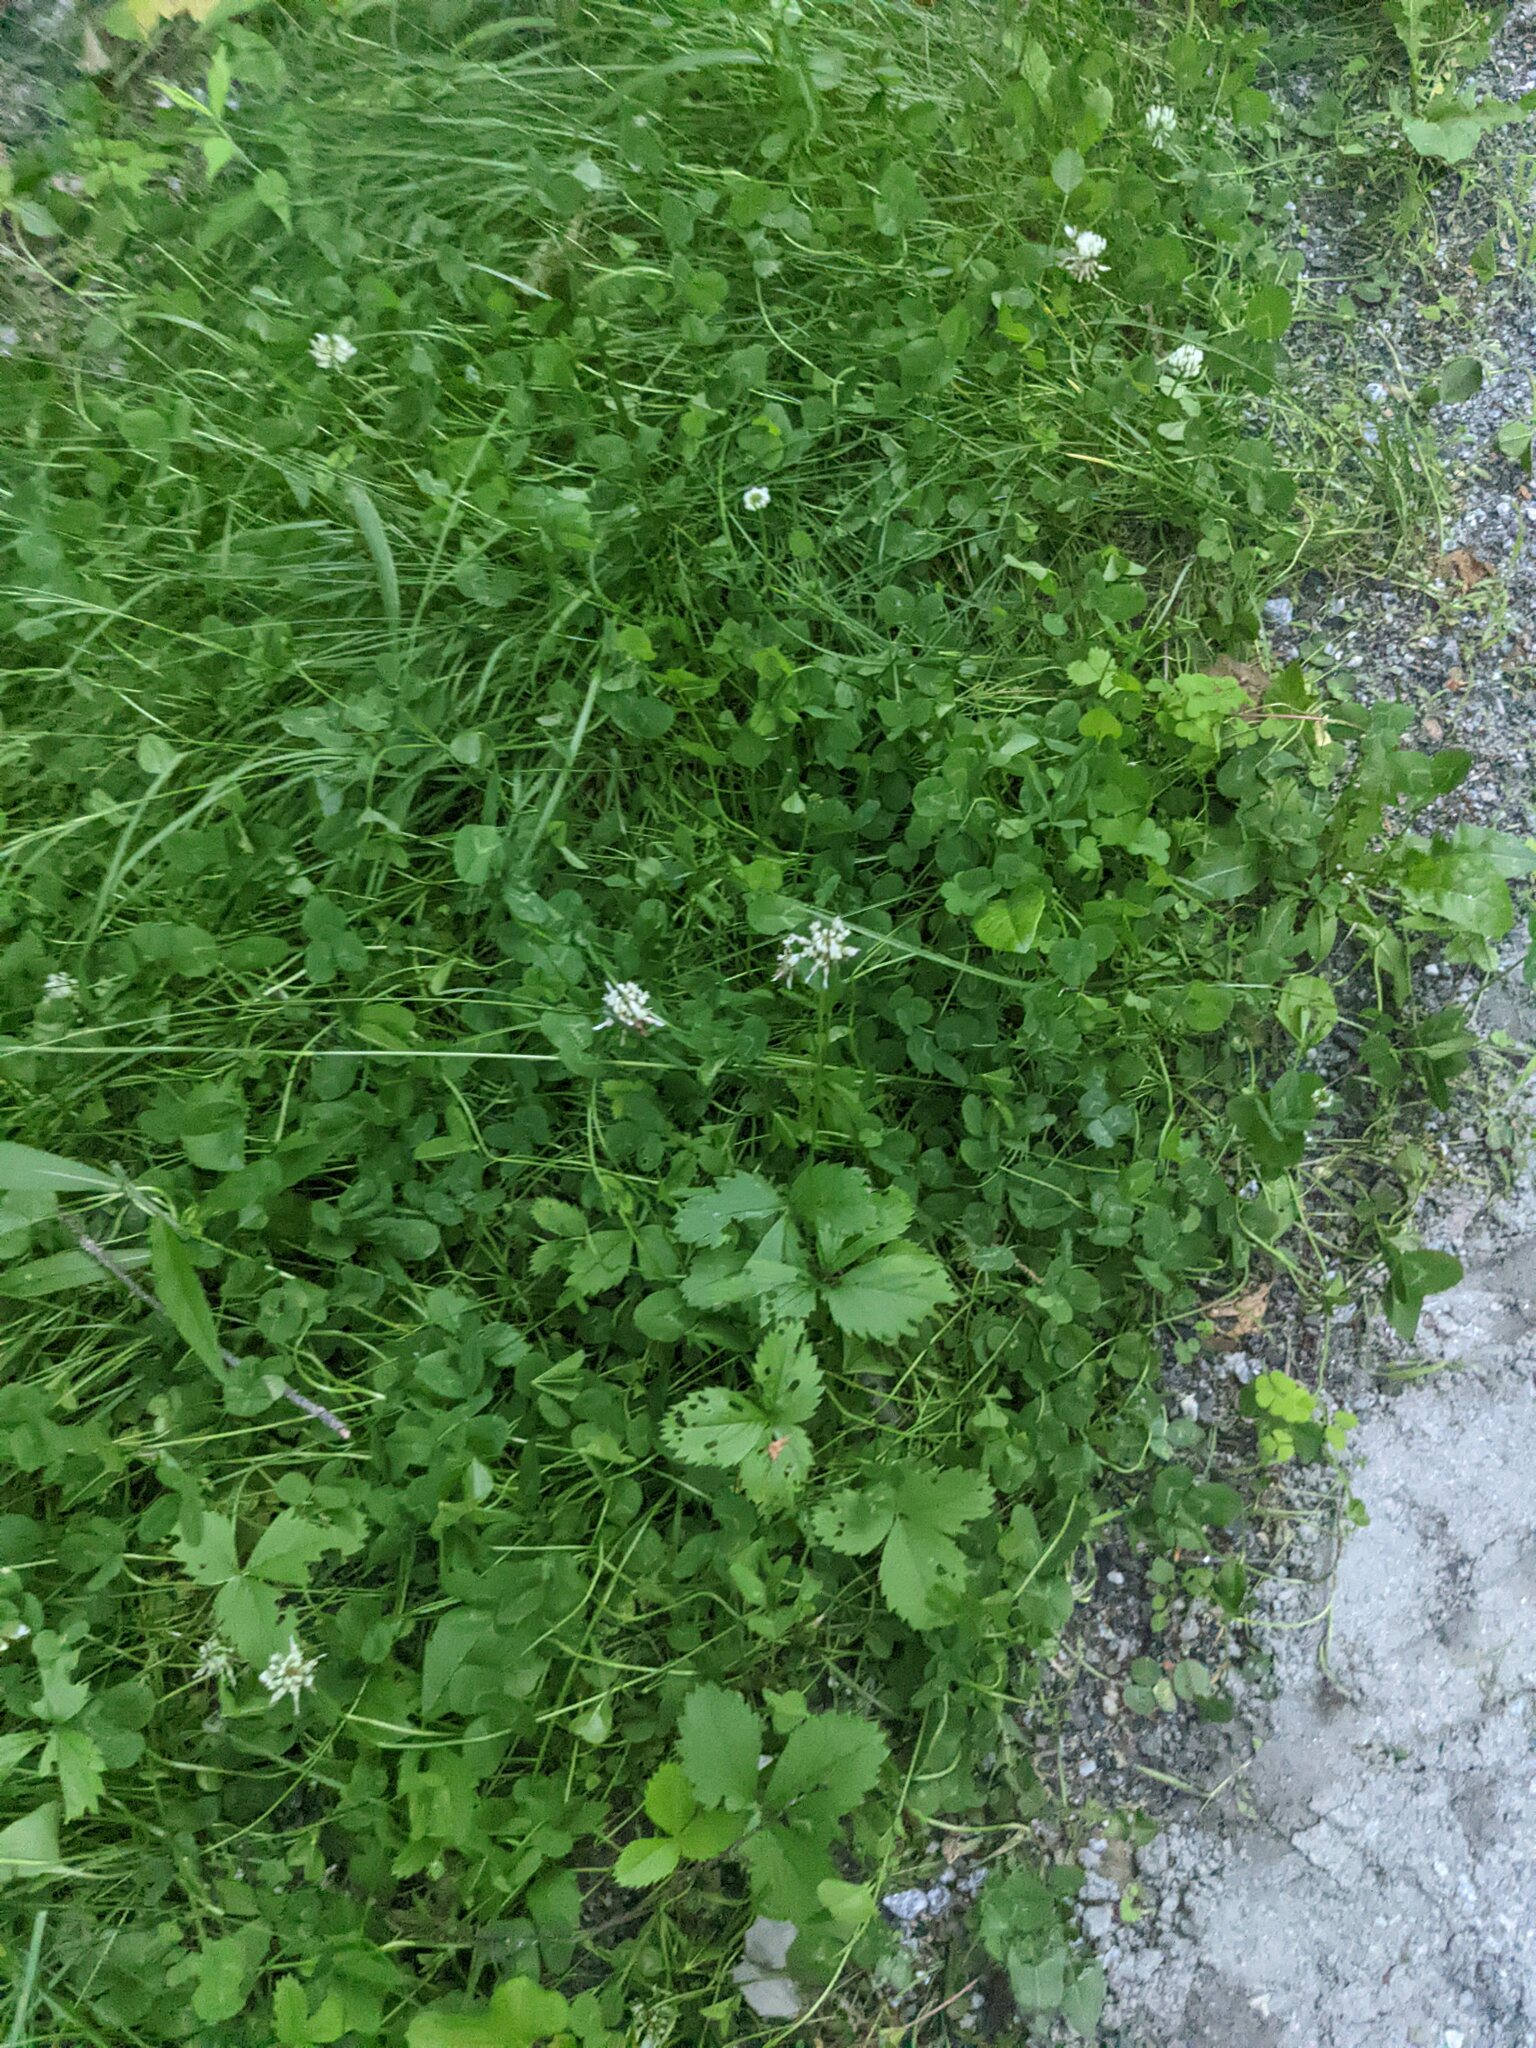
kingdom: Plantae
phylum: Tracheophyta
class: Magnoliopsida
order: Fabales
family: Fabaceae
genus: Trifolium
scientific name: Trifolium repens
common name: White clover
